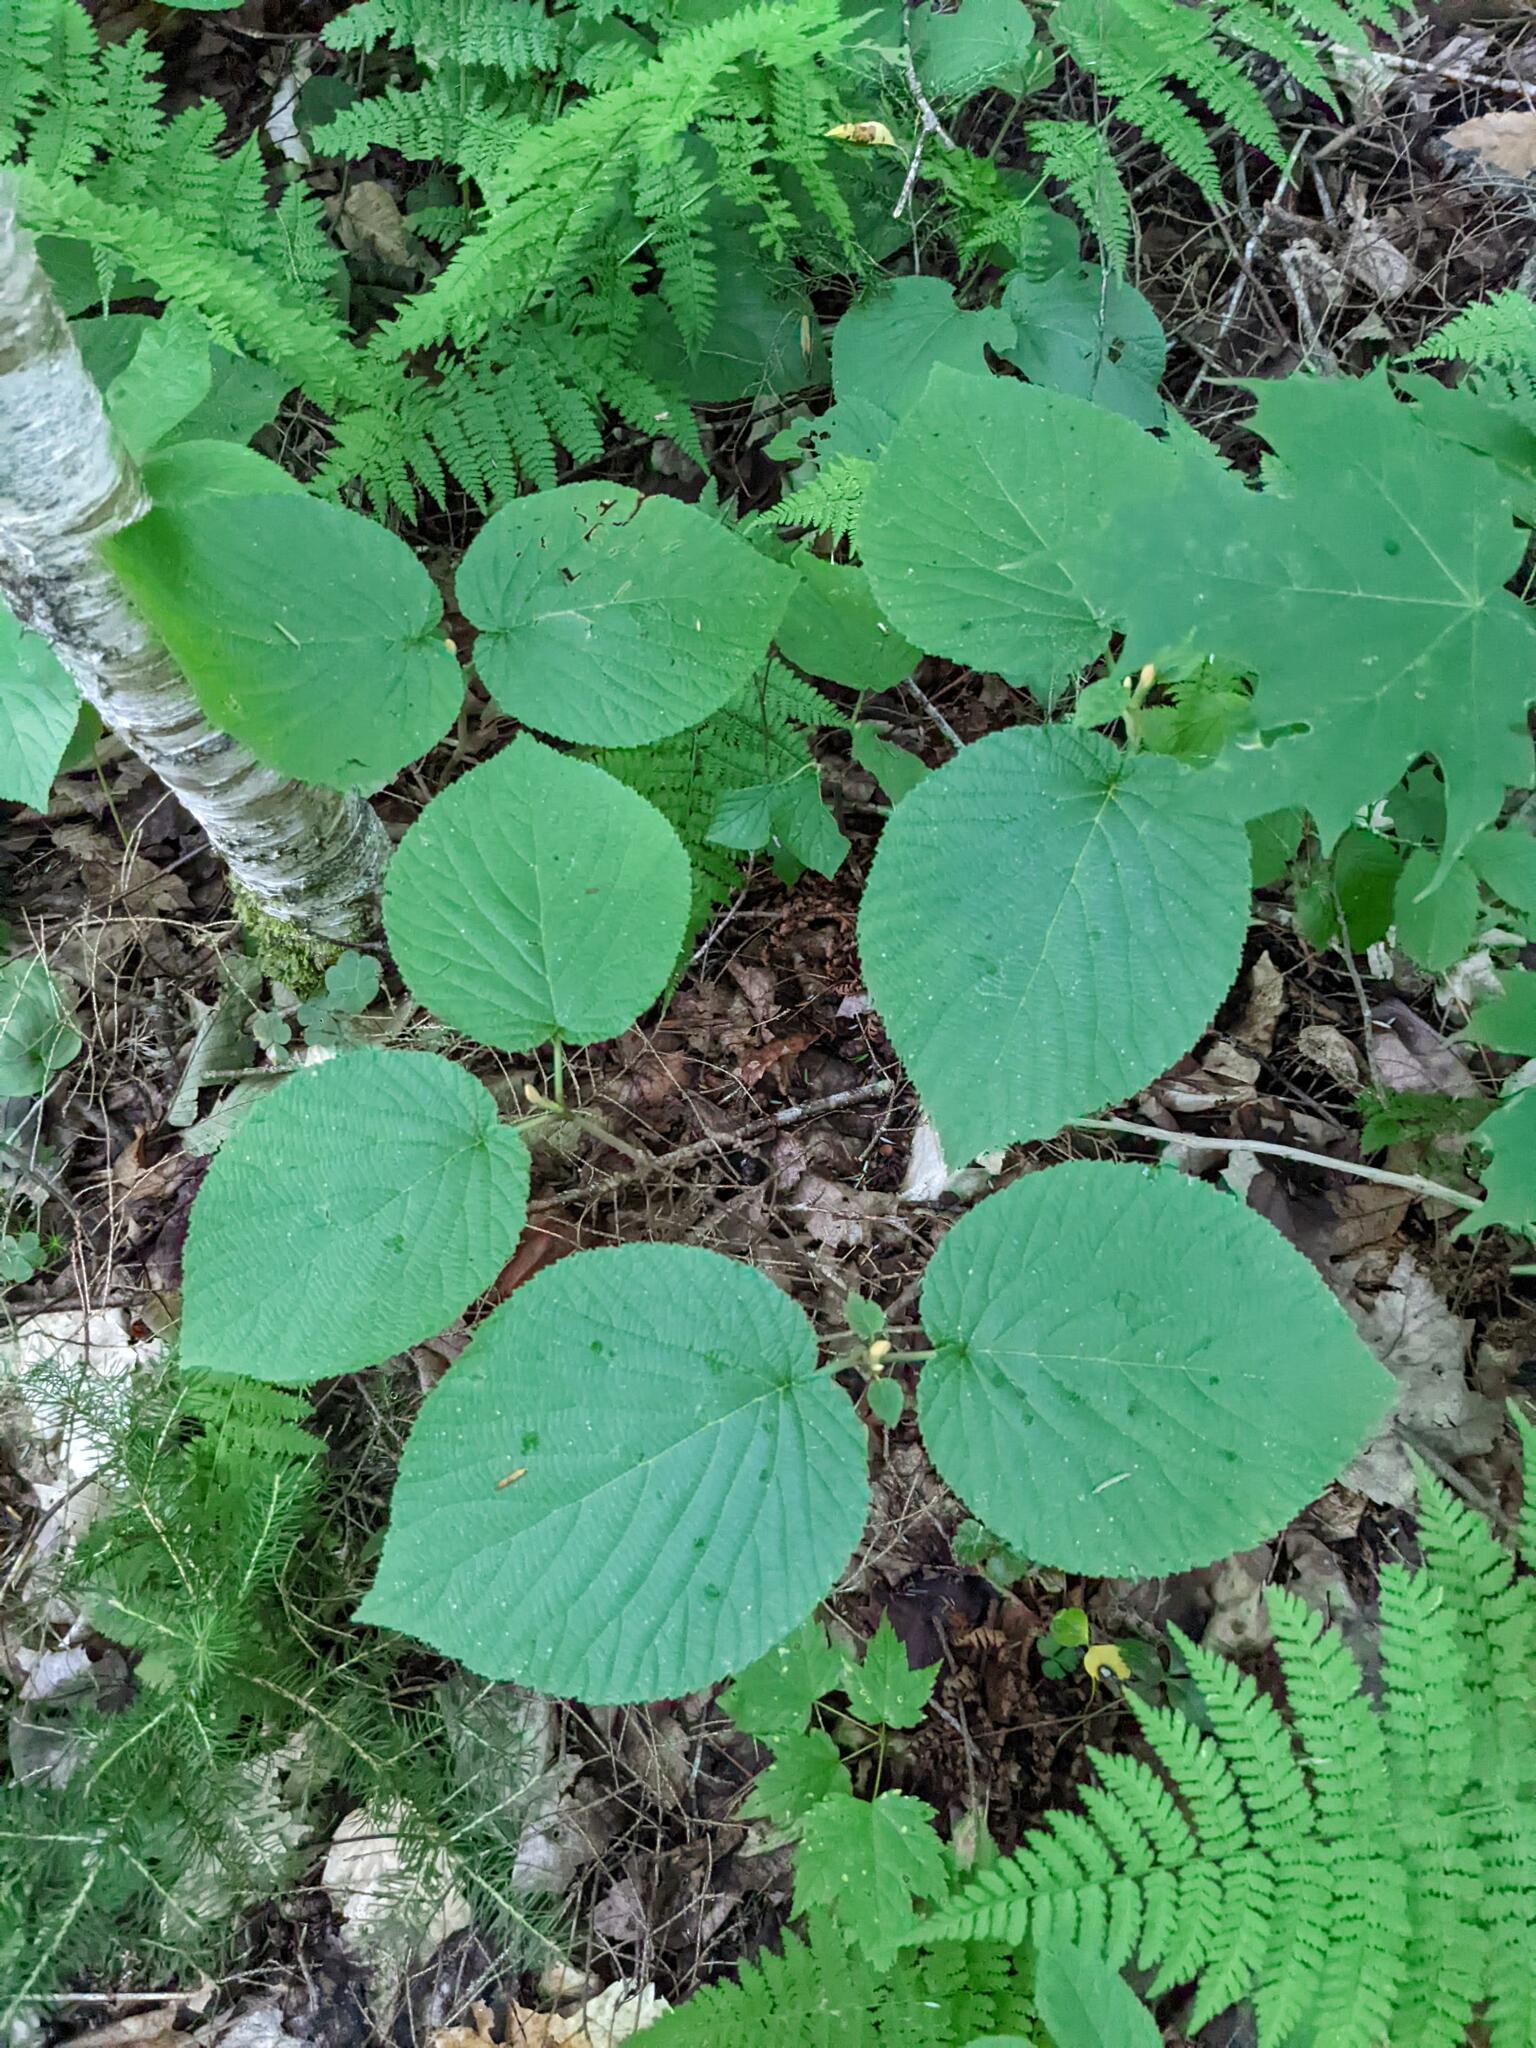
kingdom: Plantae
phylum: Tracheophyta
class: Magnoliopsida
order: Dipsacales
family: Viburnaceae
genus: Viburnum
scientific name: Viburnum lantanoides
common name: Hobblebush
